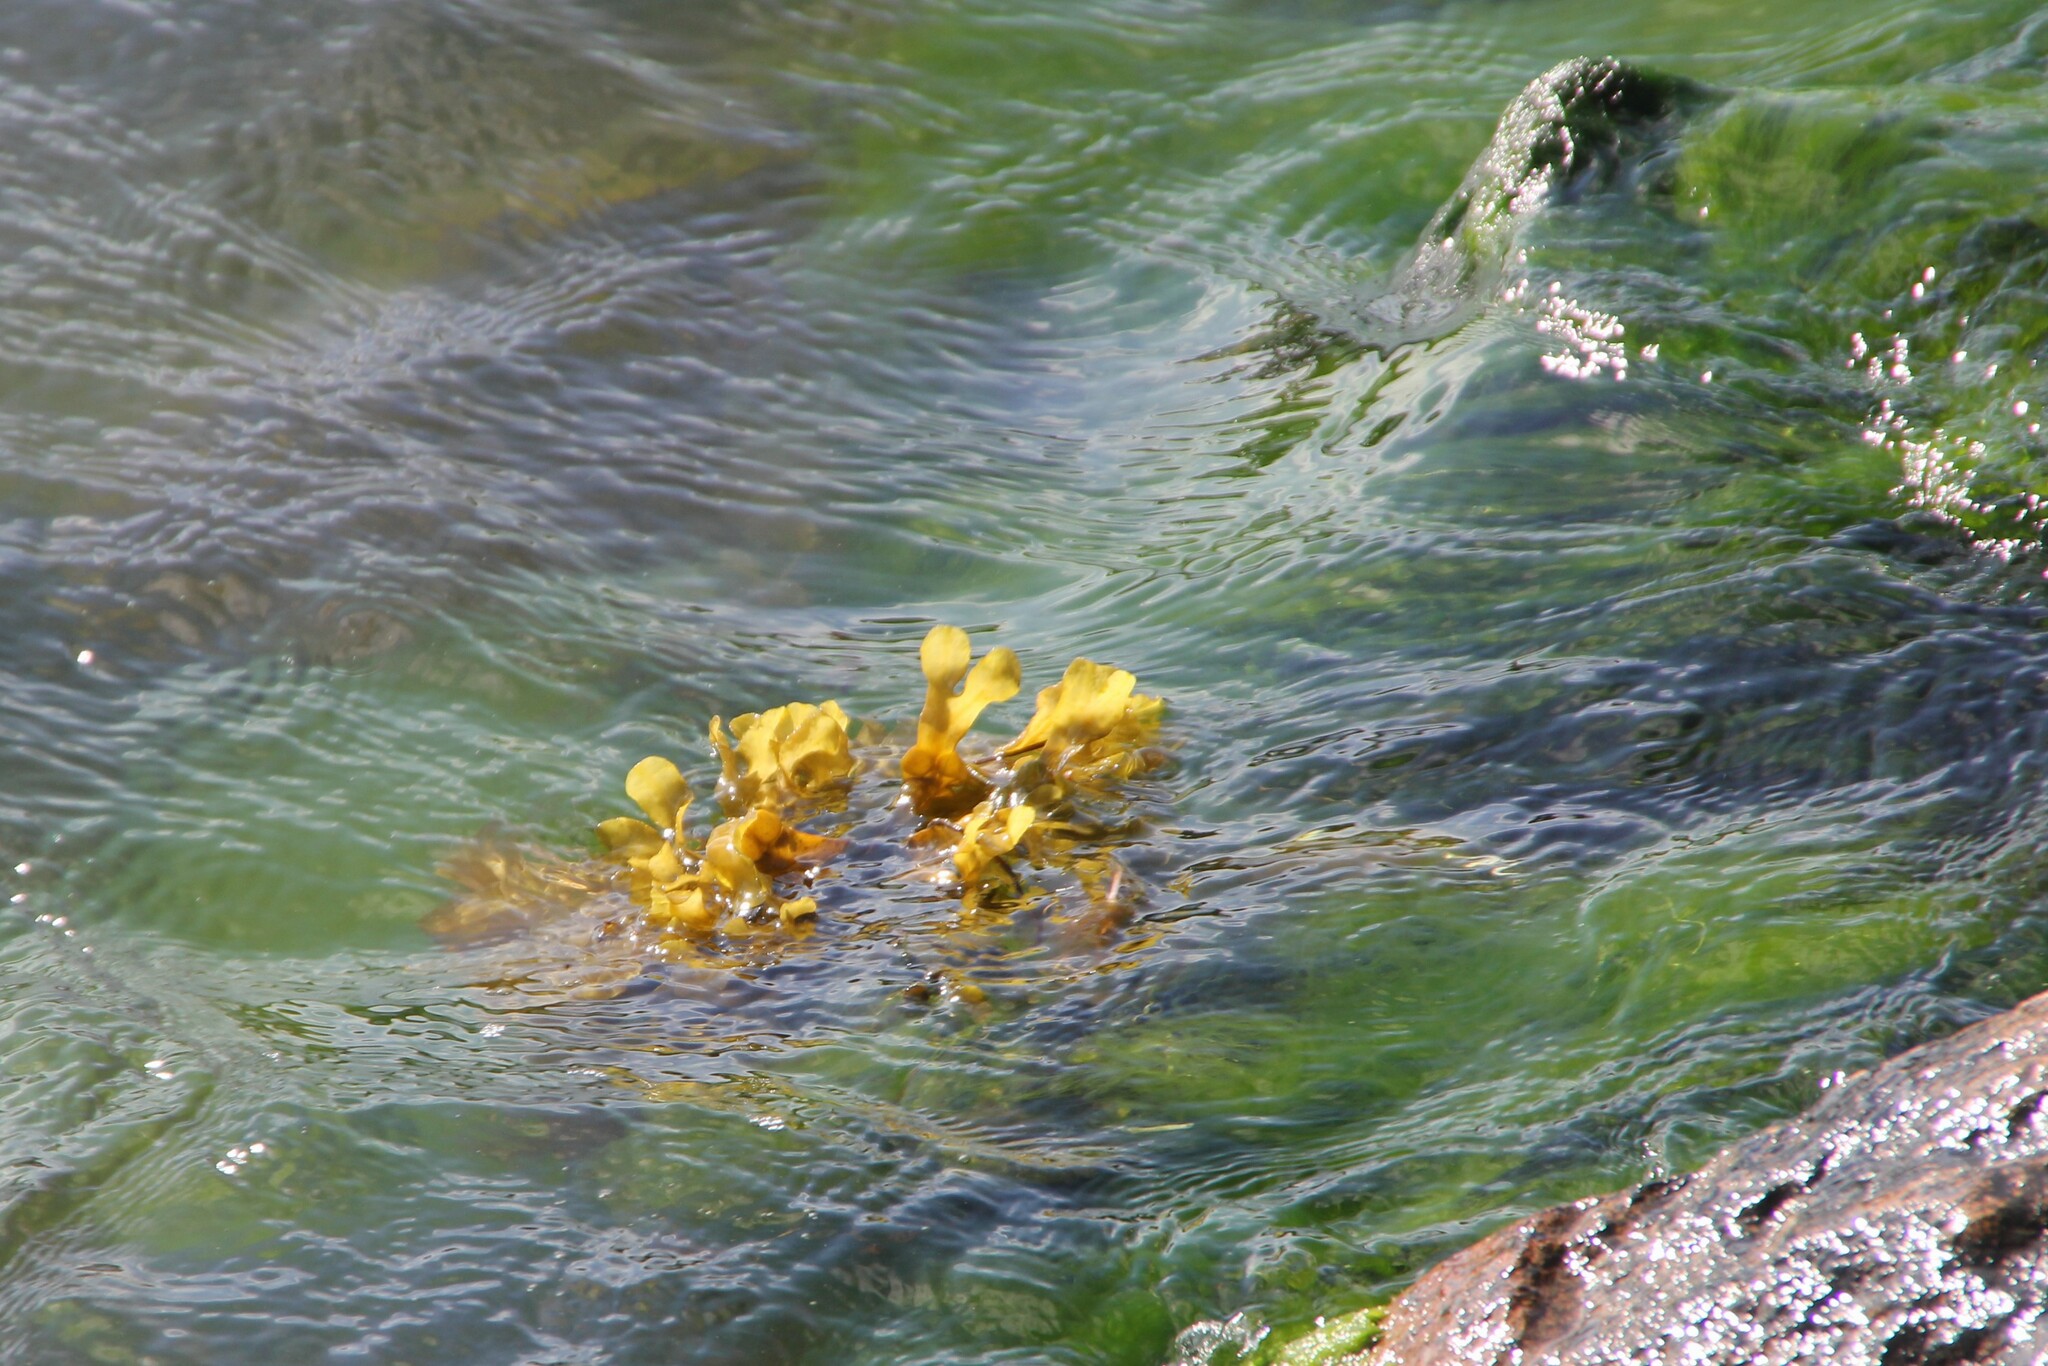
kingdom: Chromista
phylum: Ochrophyta
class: Phaeophyceae
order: Fucales
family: Fucaceae
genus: Fucus
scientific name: Fucus vesiculosus
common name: Bladder wrack
